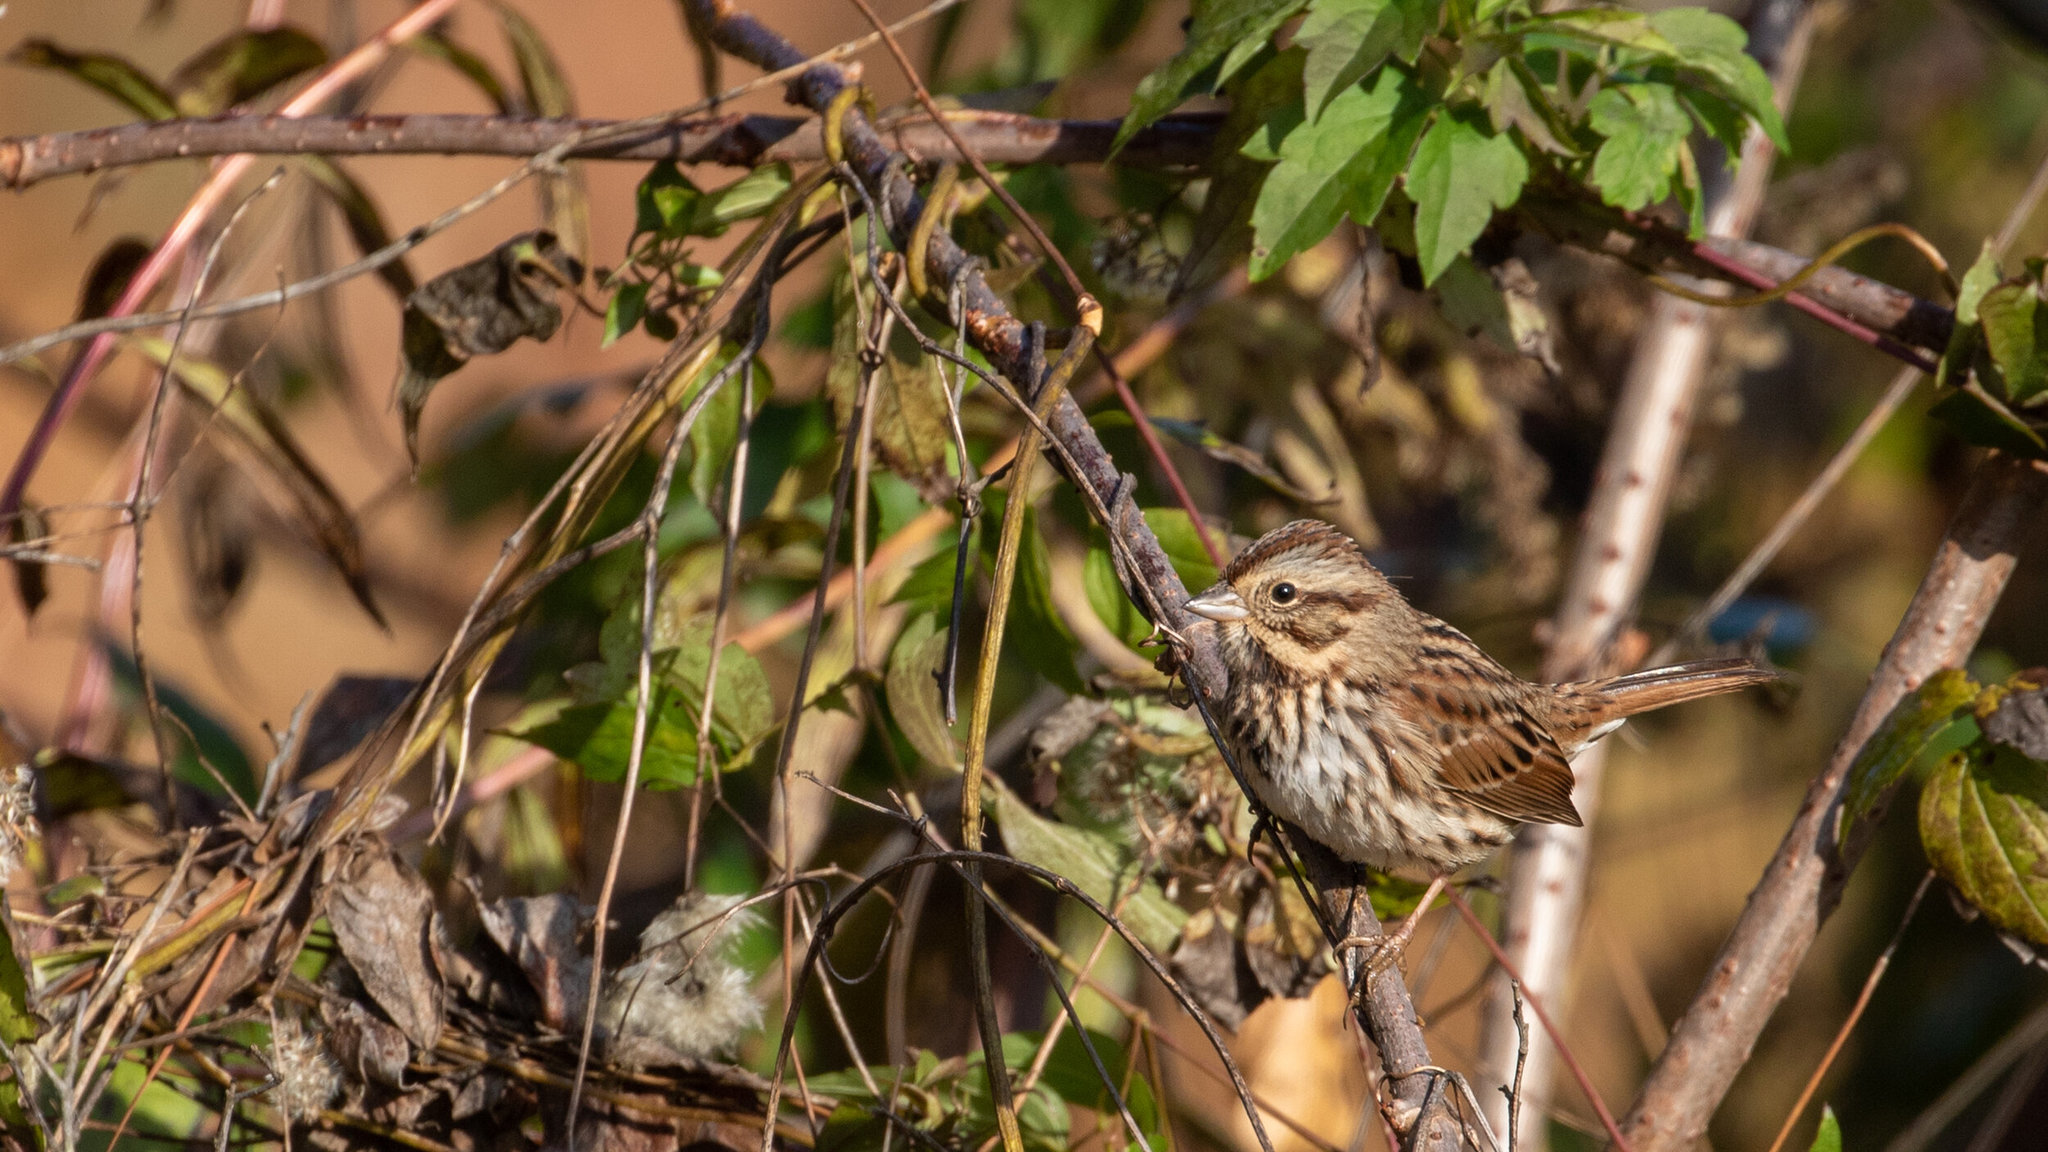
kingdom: Animalia
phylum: Chordata
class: Aves
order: Passeriformes
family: Passerellidae
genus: Melospiza
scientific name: Melospiza melodia
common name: Song sparrow
